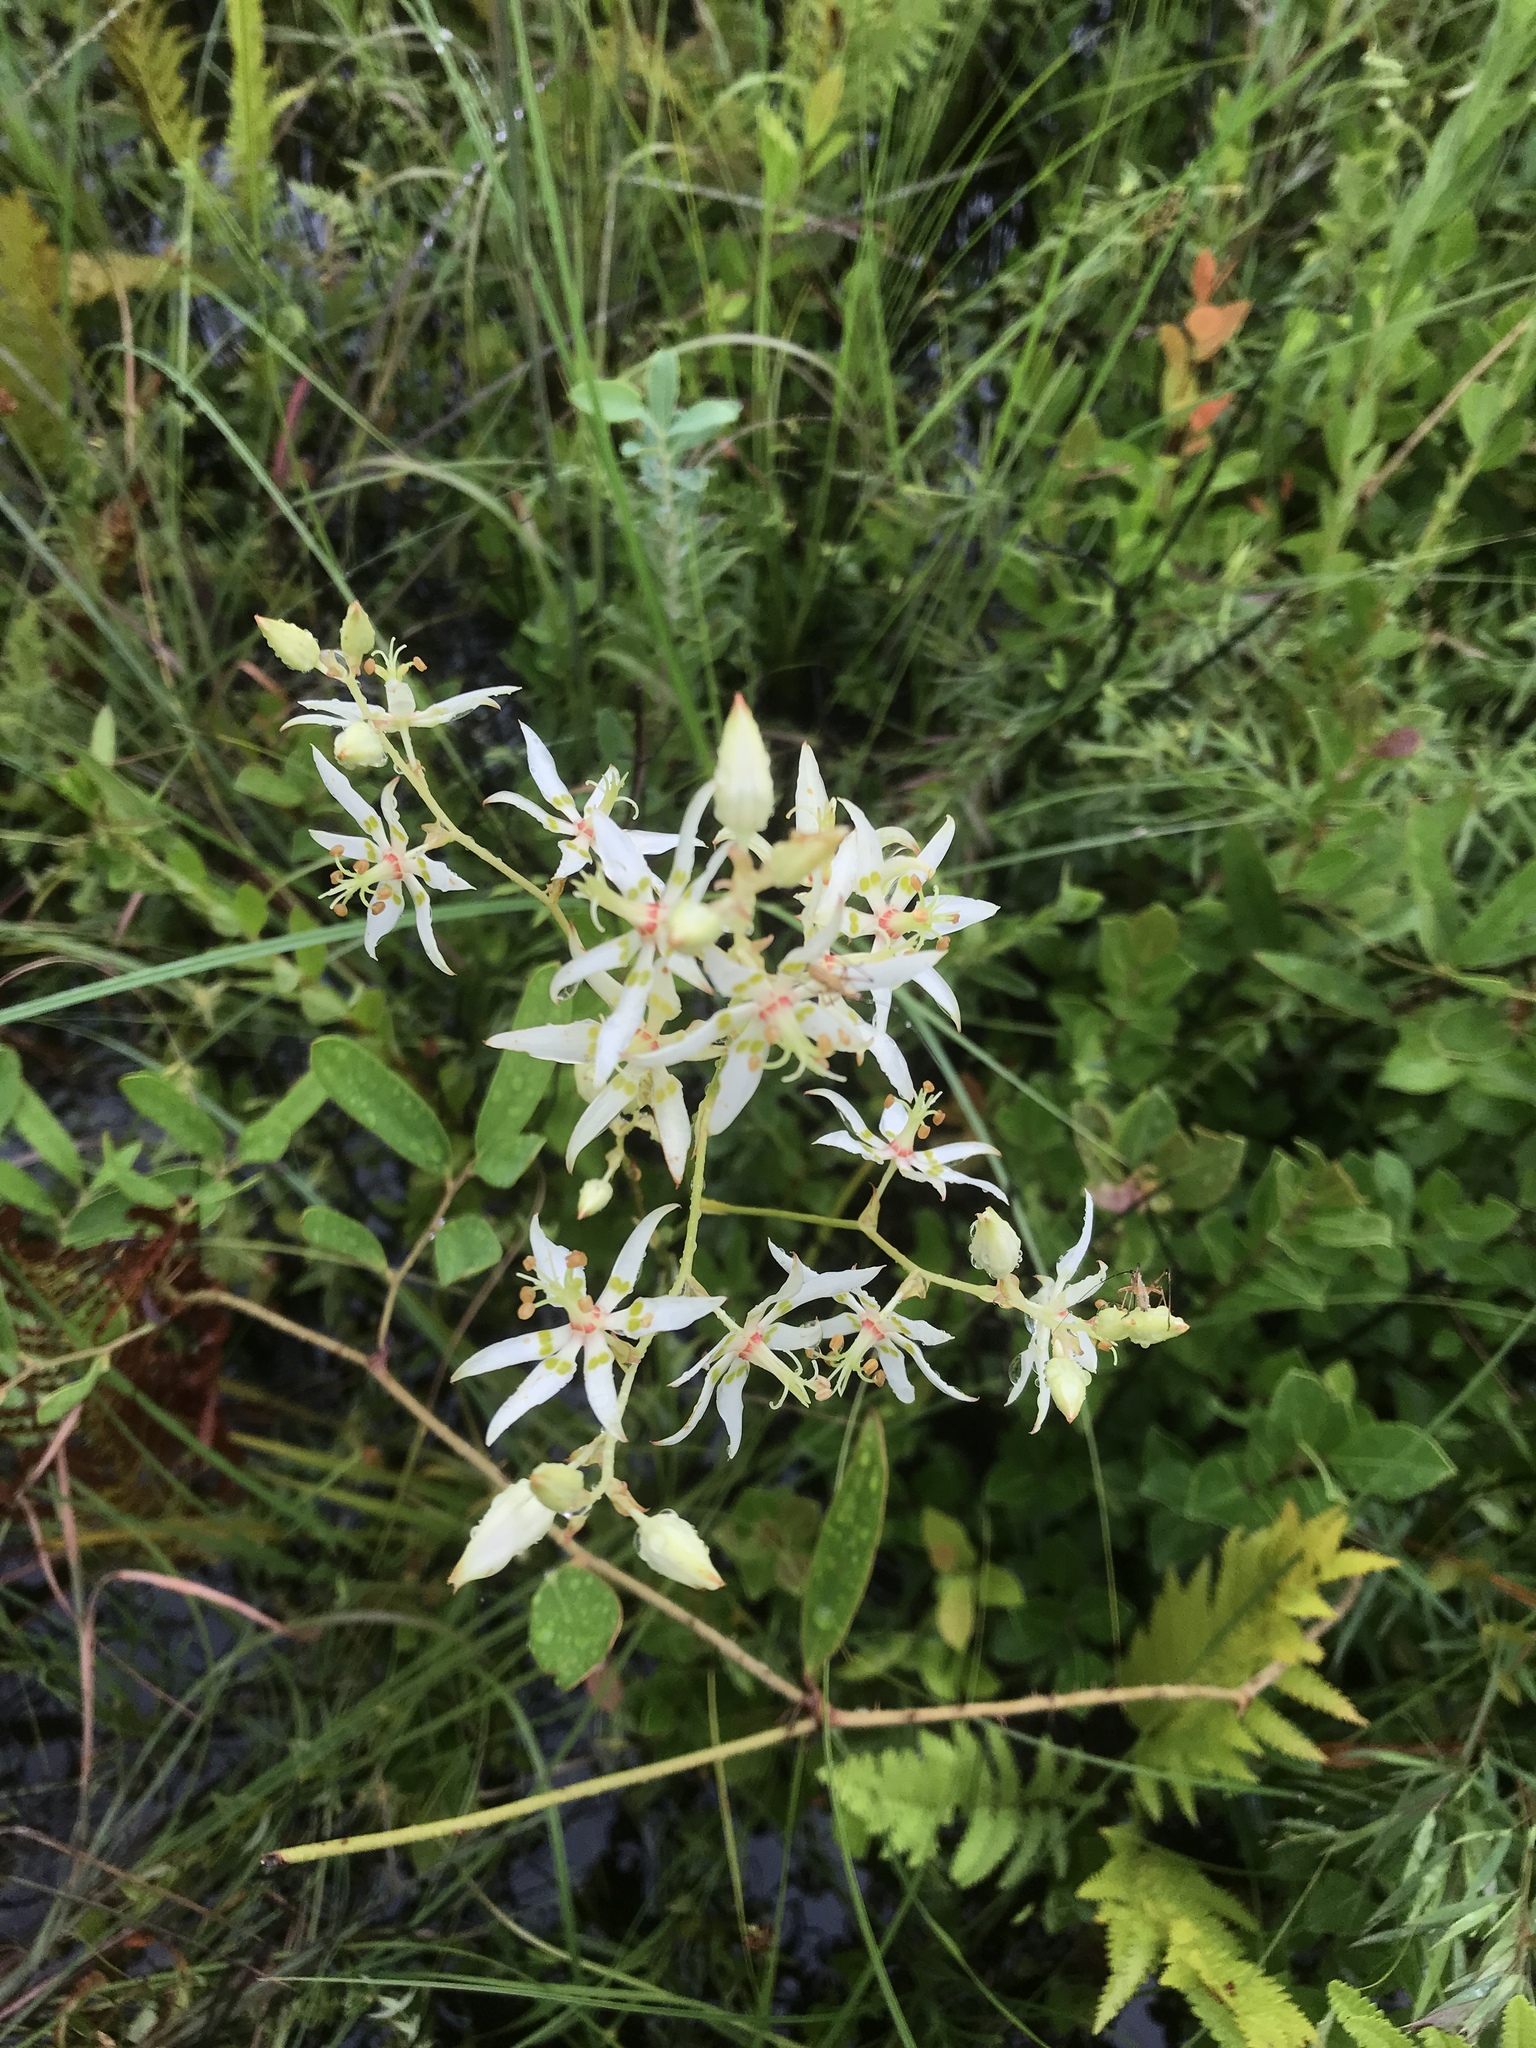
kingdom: Plantae
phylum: Tracheophyta
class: Magnoliopsida
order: Asterales
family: Asteraceae
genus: Sericocarpus
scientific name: Sericocarpus tortifolius
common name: Dixie aster
